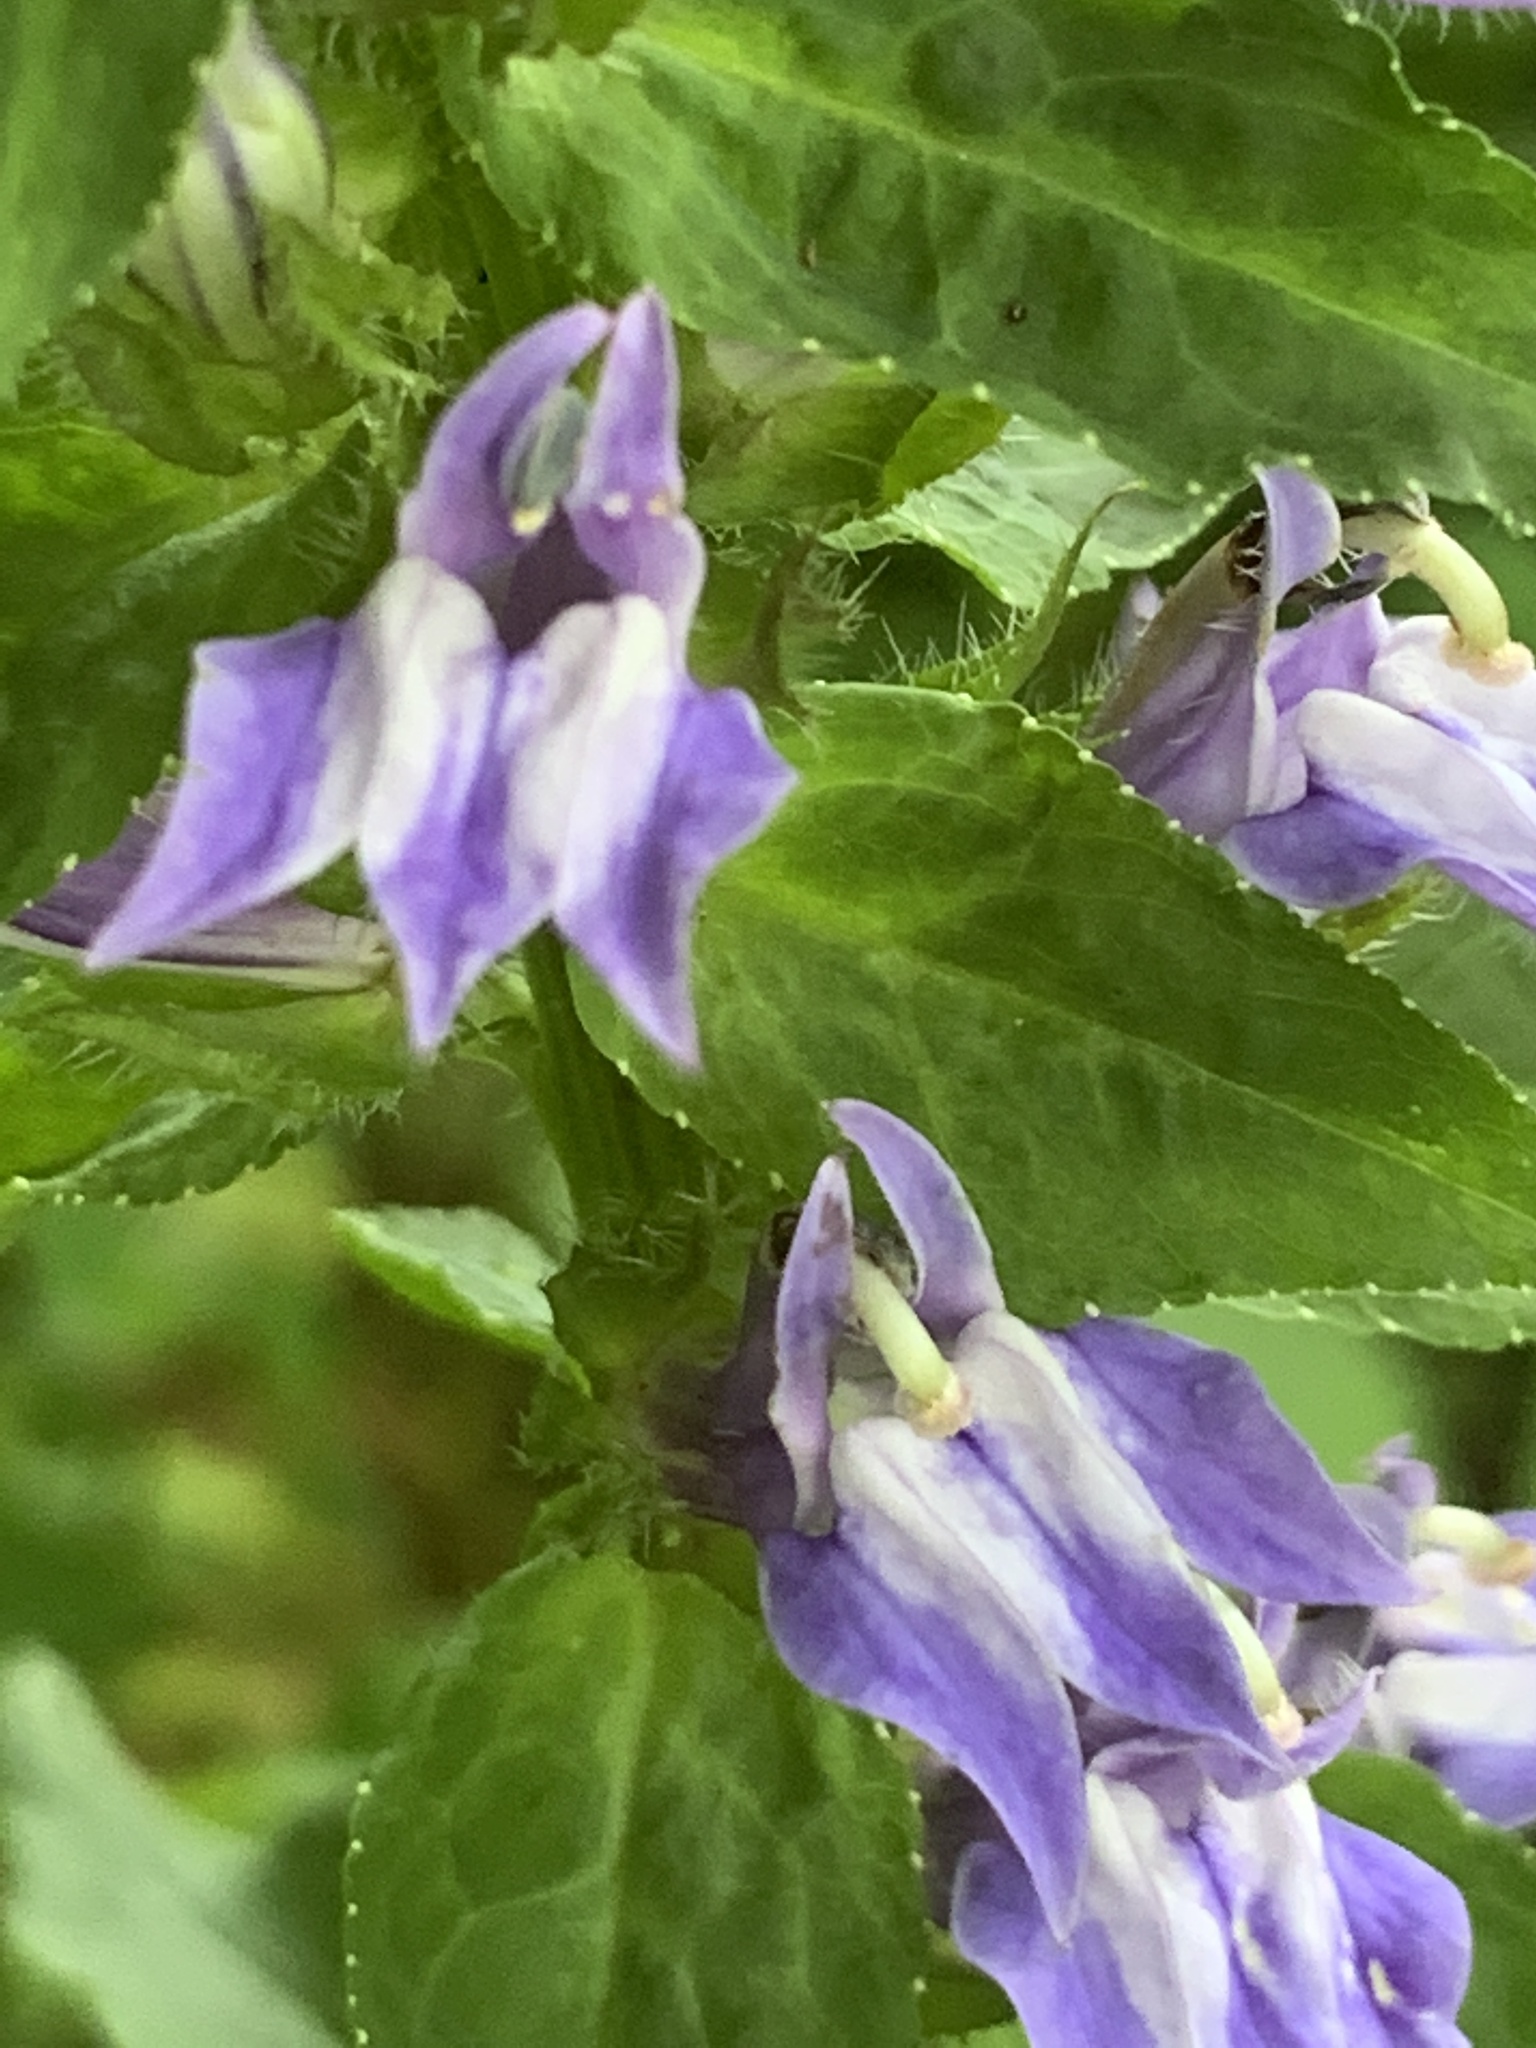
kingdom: Plantae
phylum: Tracheophyta
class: Magnoliopsida
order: Asterales
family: Campanulaceae
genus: Lobelia
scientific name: Lobelia siphilitica
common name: Great lobelia
